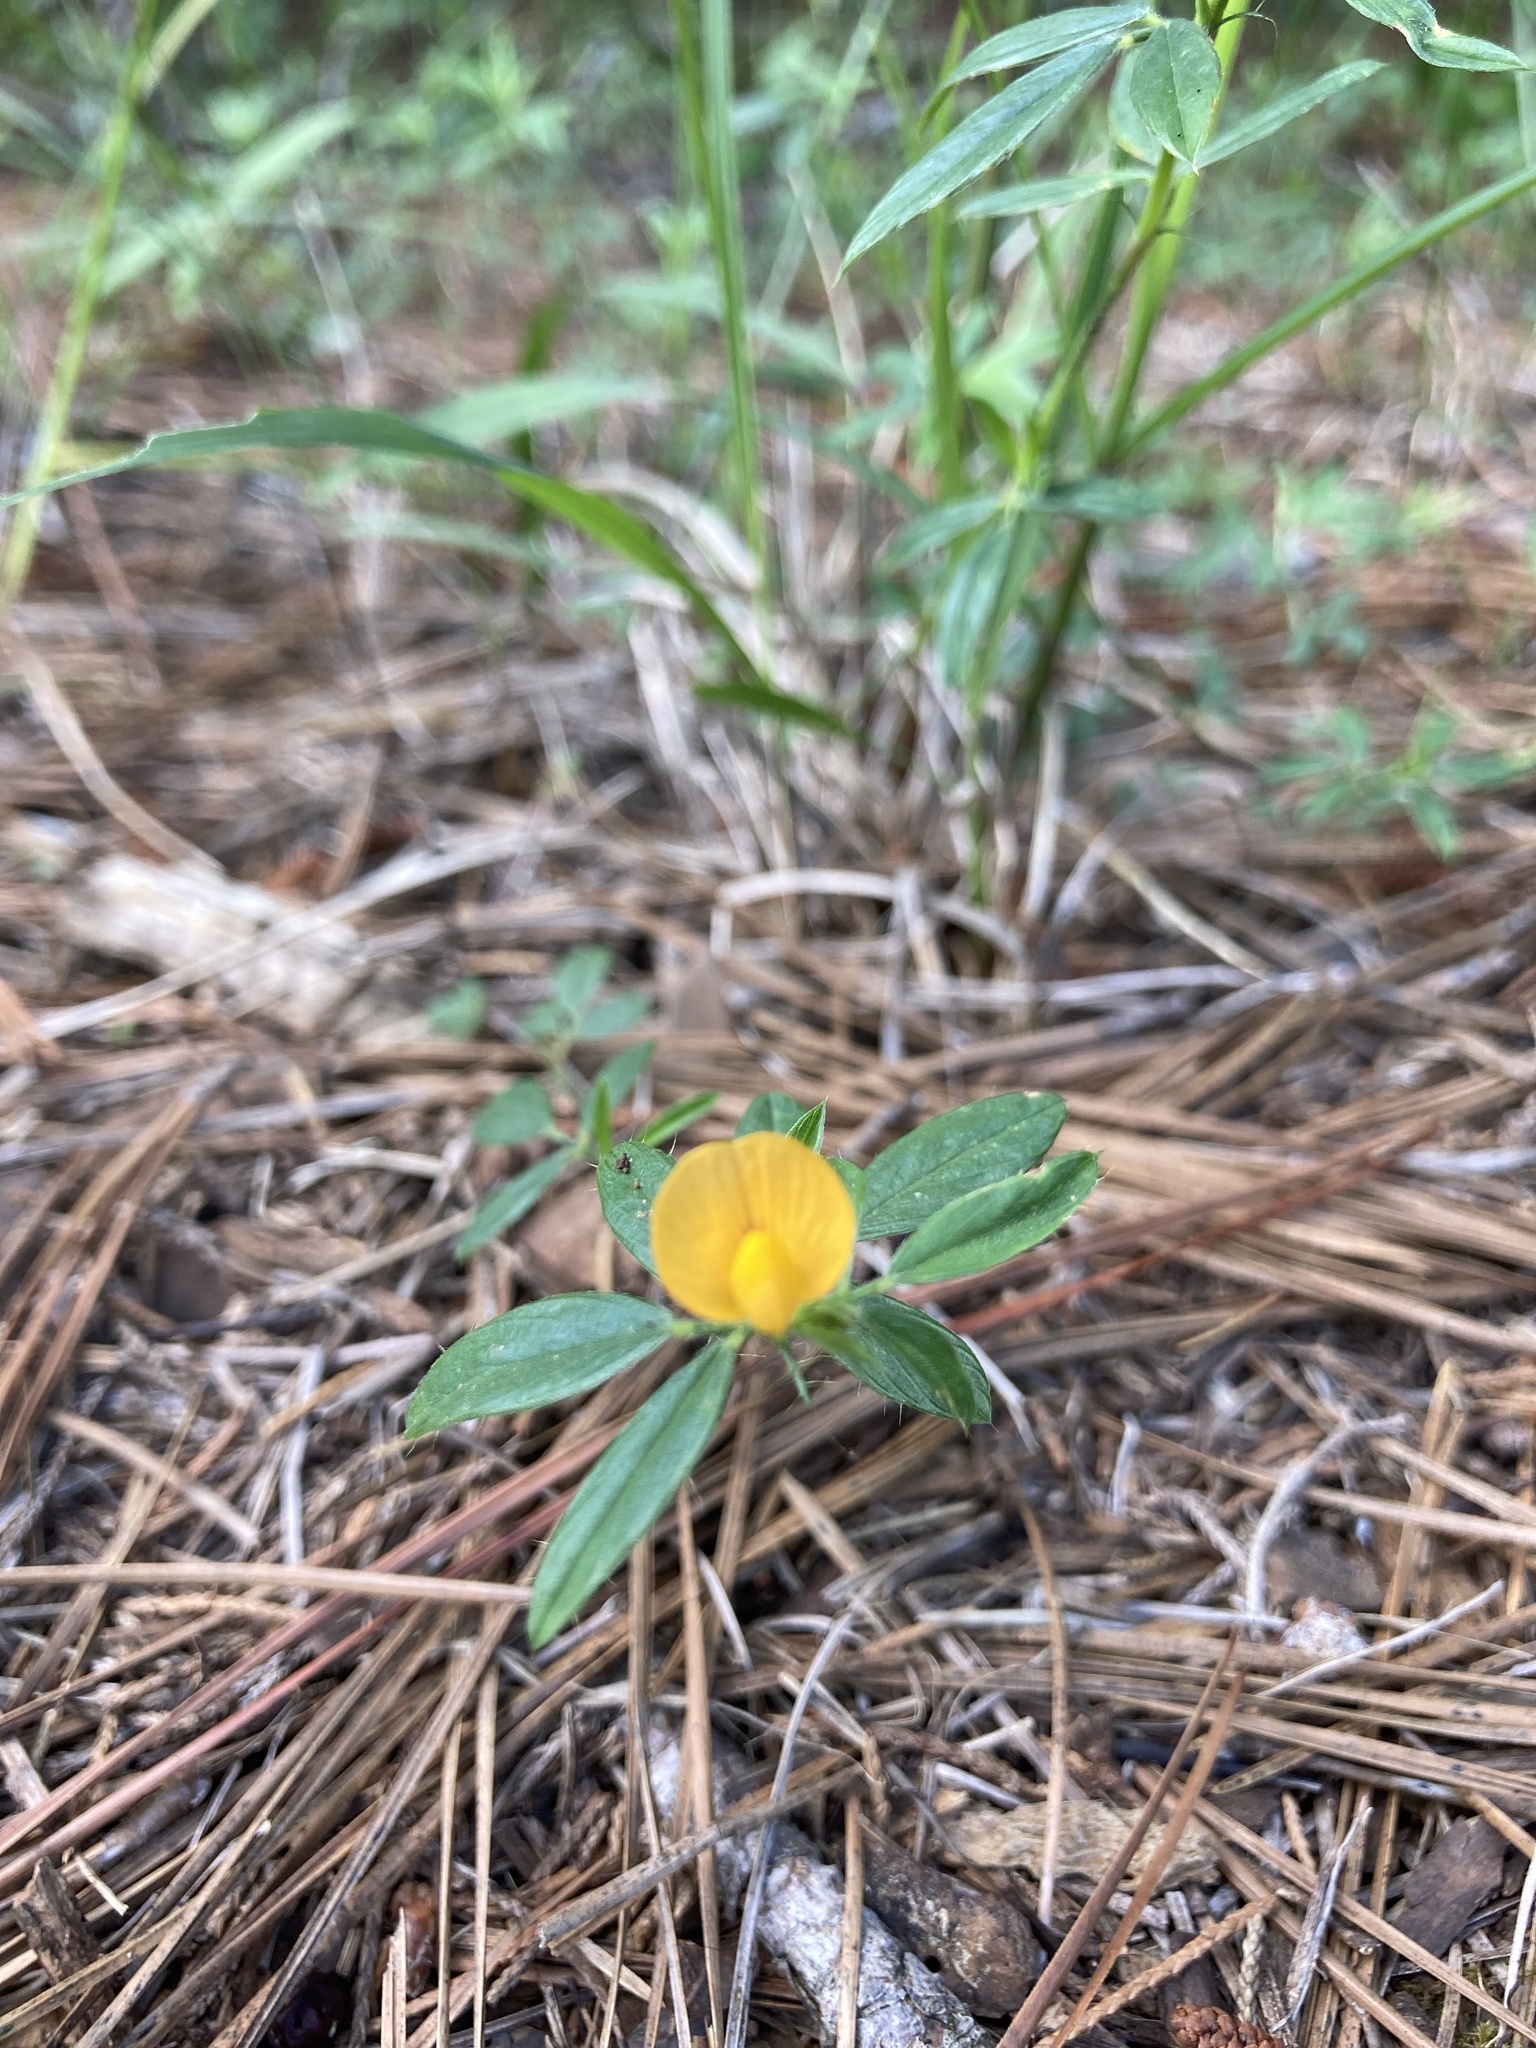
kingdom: Plantae
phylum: Tracheophyta
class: Magnoliopsida
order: Fabales
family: Fabaceae
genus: Stylosanthes
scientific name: Stylosanthes biflora
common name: Two-flower pencil-flower
